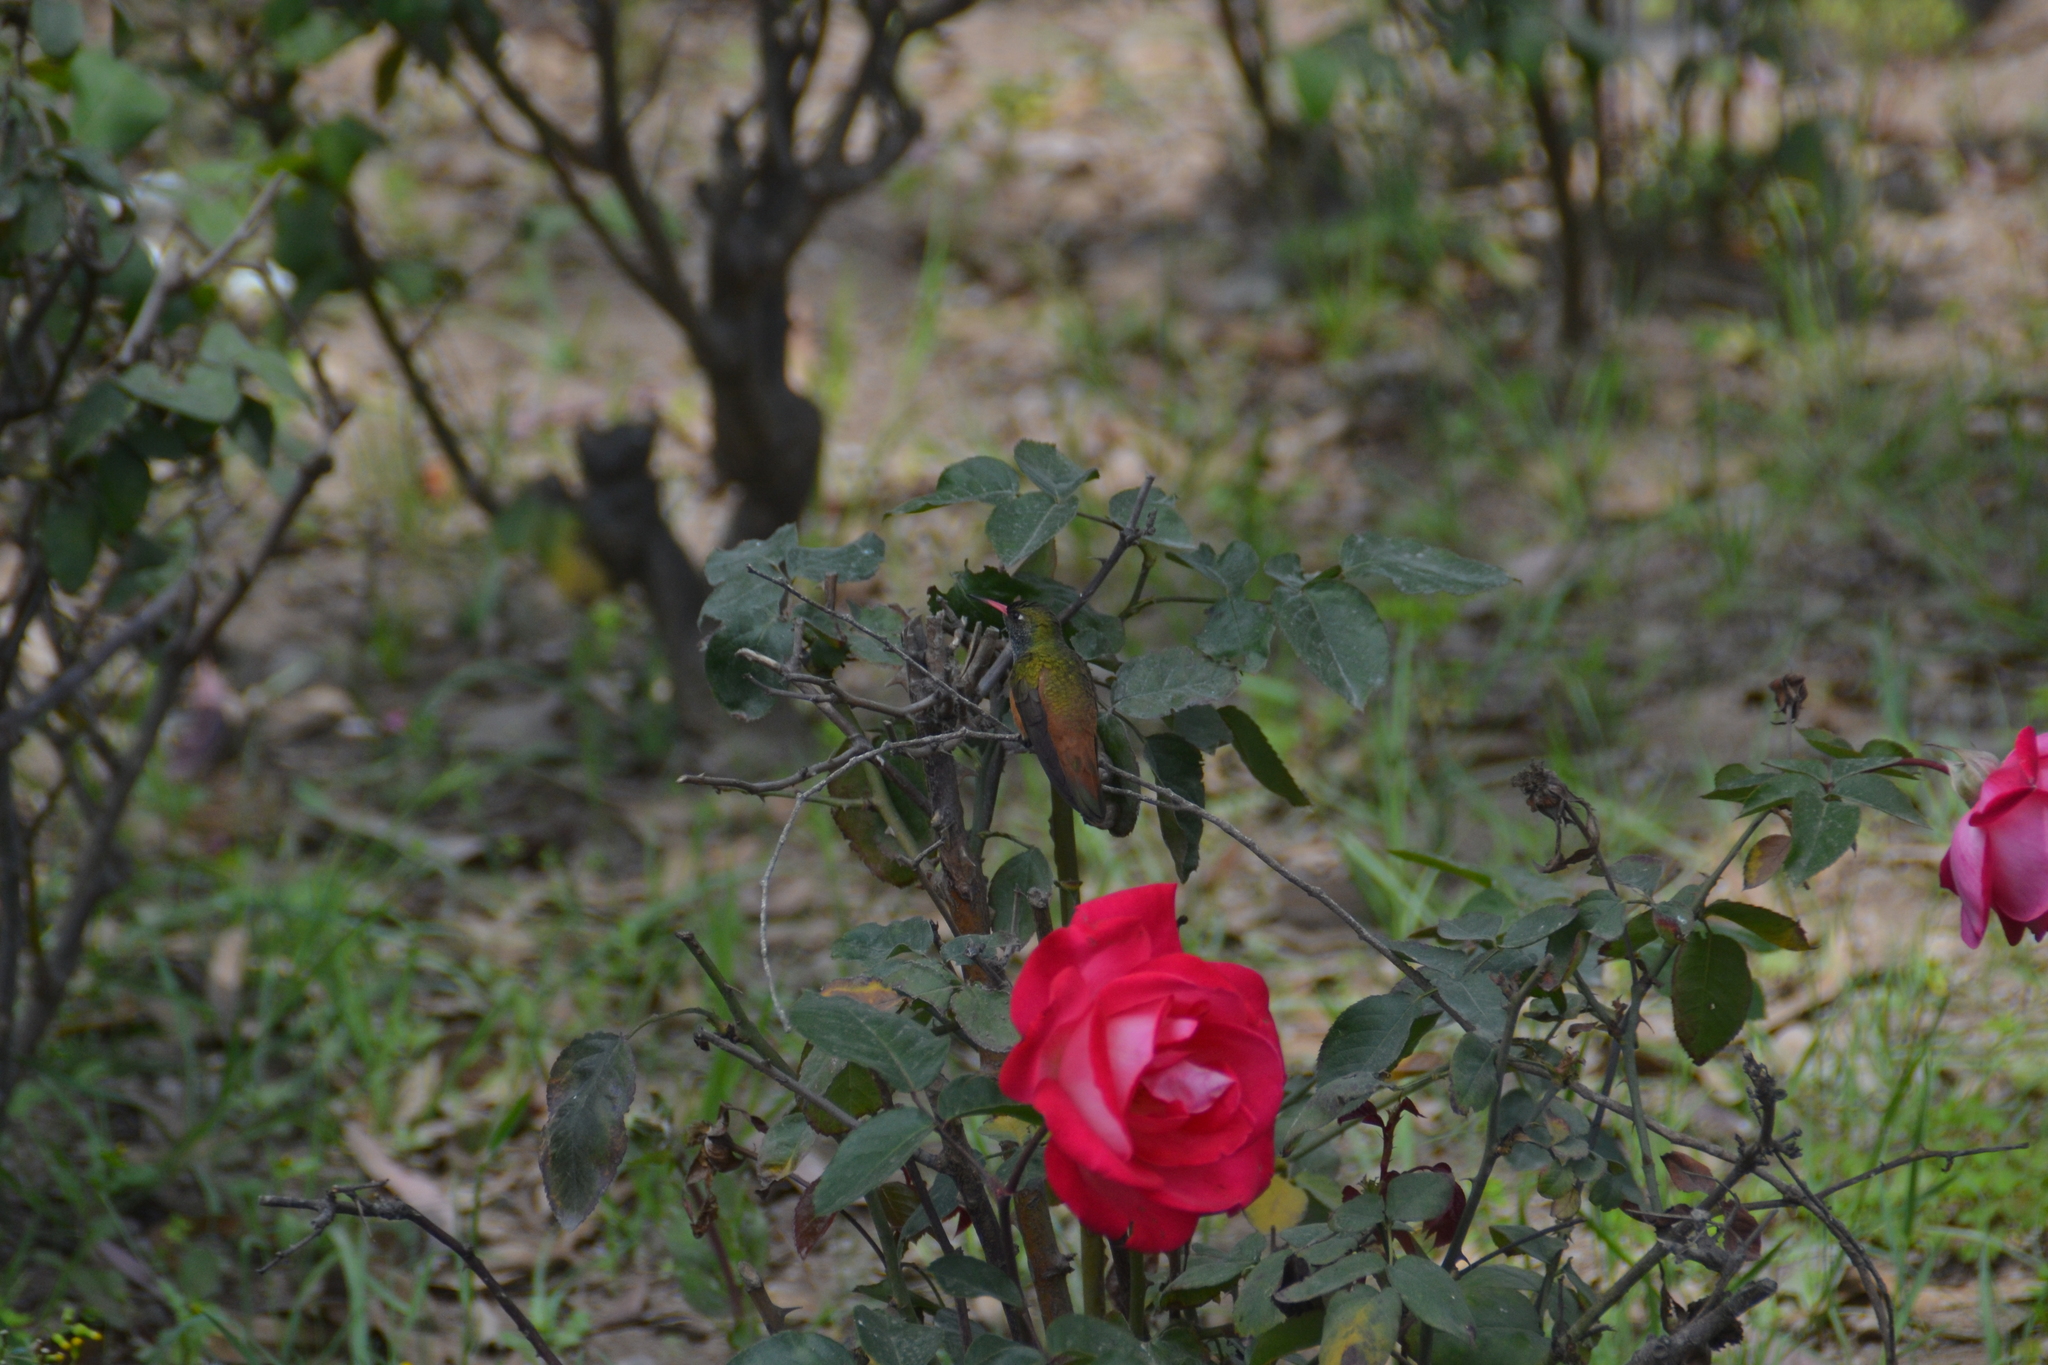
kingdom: Animalia
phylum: Chordata
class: Aves
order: Apodiformes
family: Trochilidae
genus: Amazilis
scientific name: Amazilis amazilia
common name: Amazilia hummingbird
